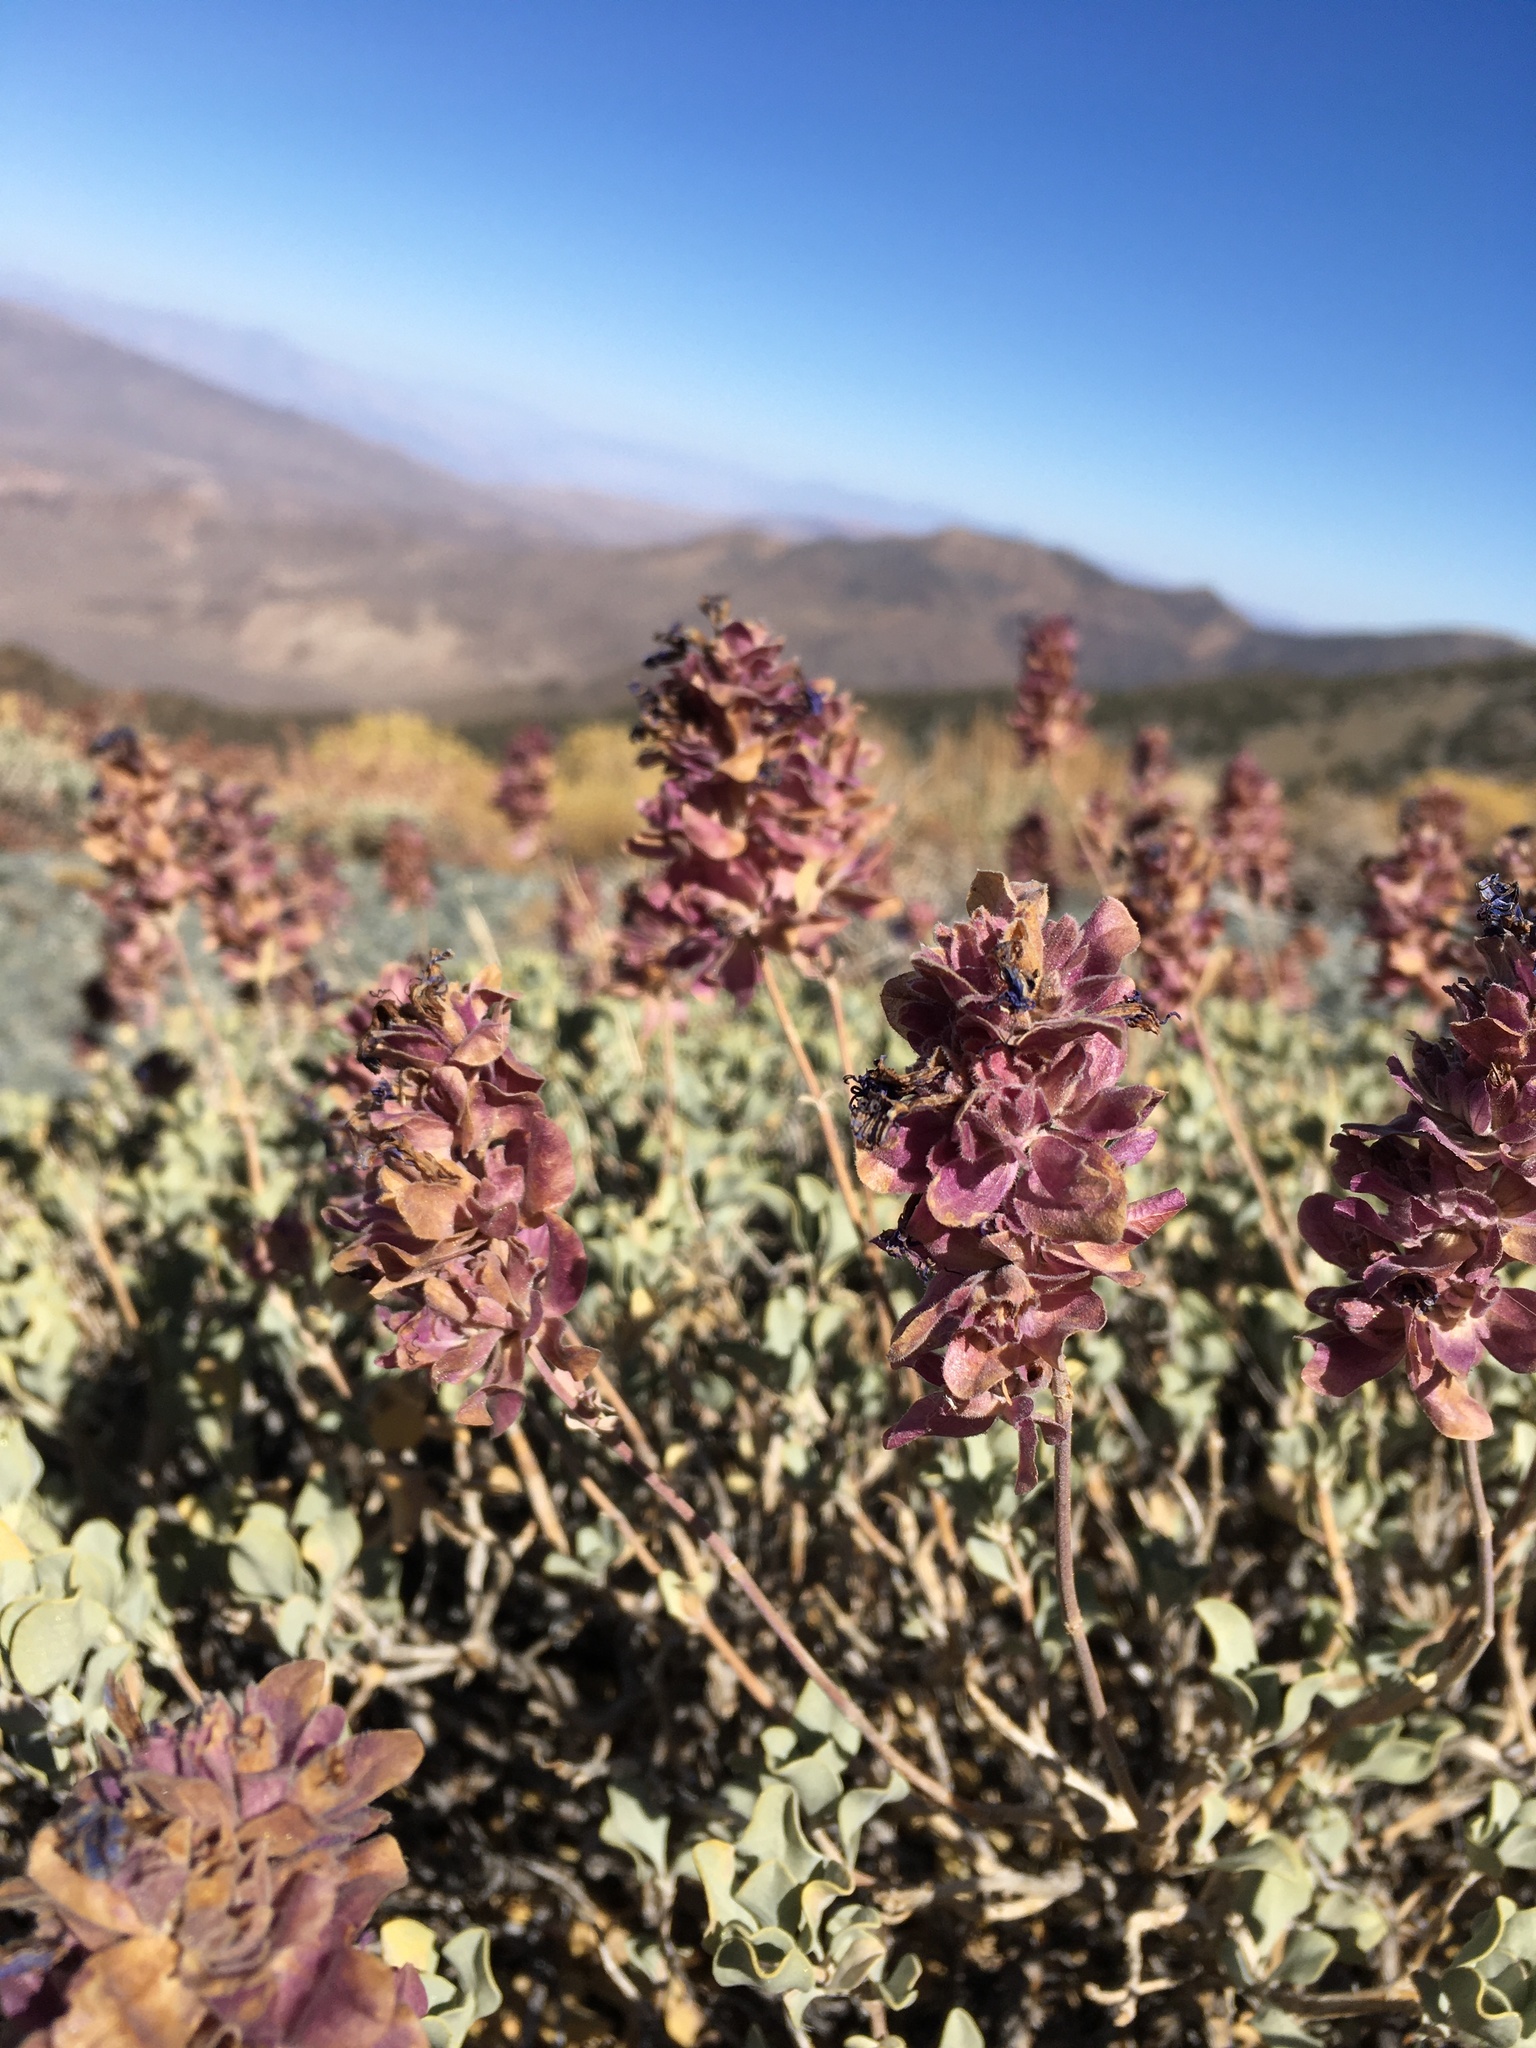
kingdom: Plantae
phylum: Tracheophyta
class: Magnoliopsida
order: Lamiales
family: Lamiaceae
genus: Salvia
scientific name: Salvia pachyphylla
